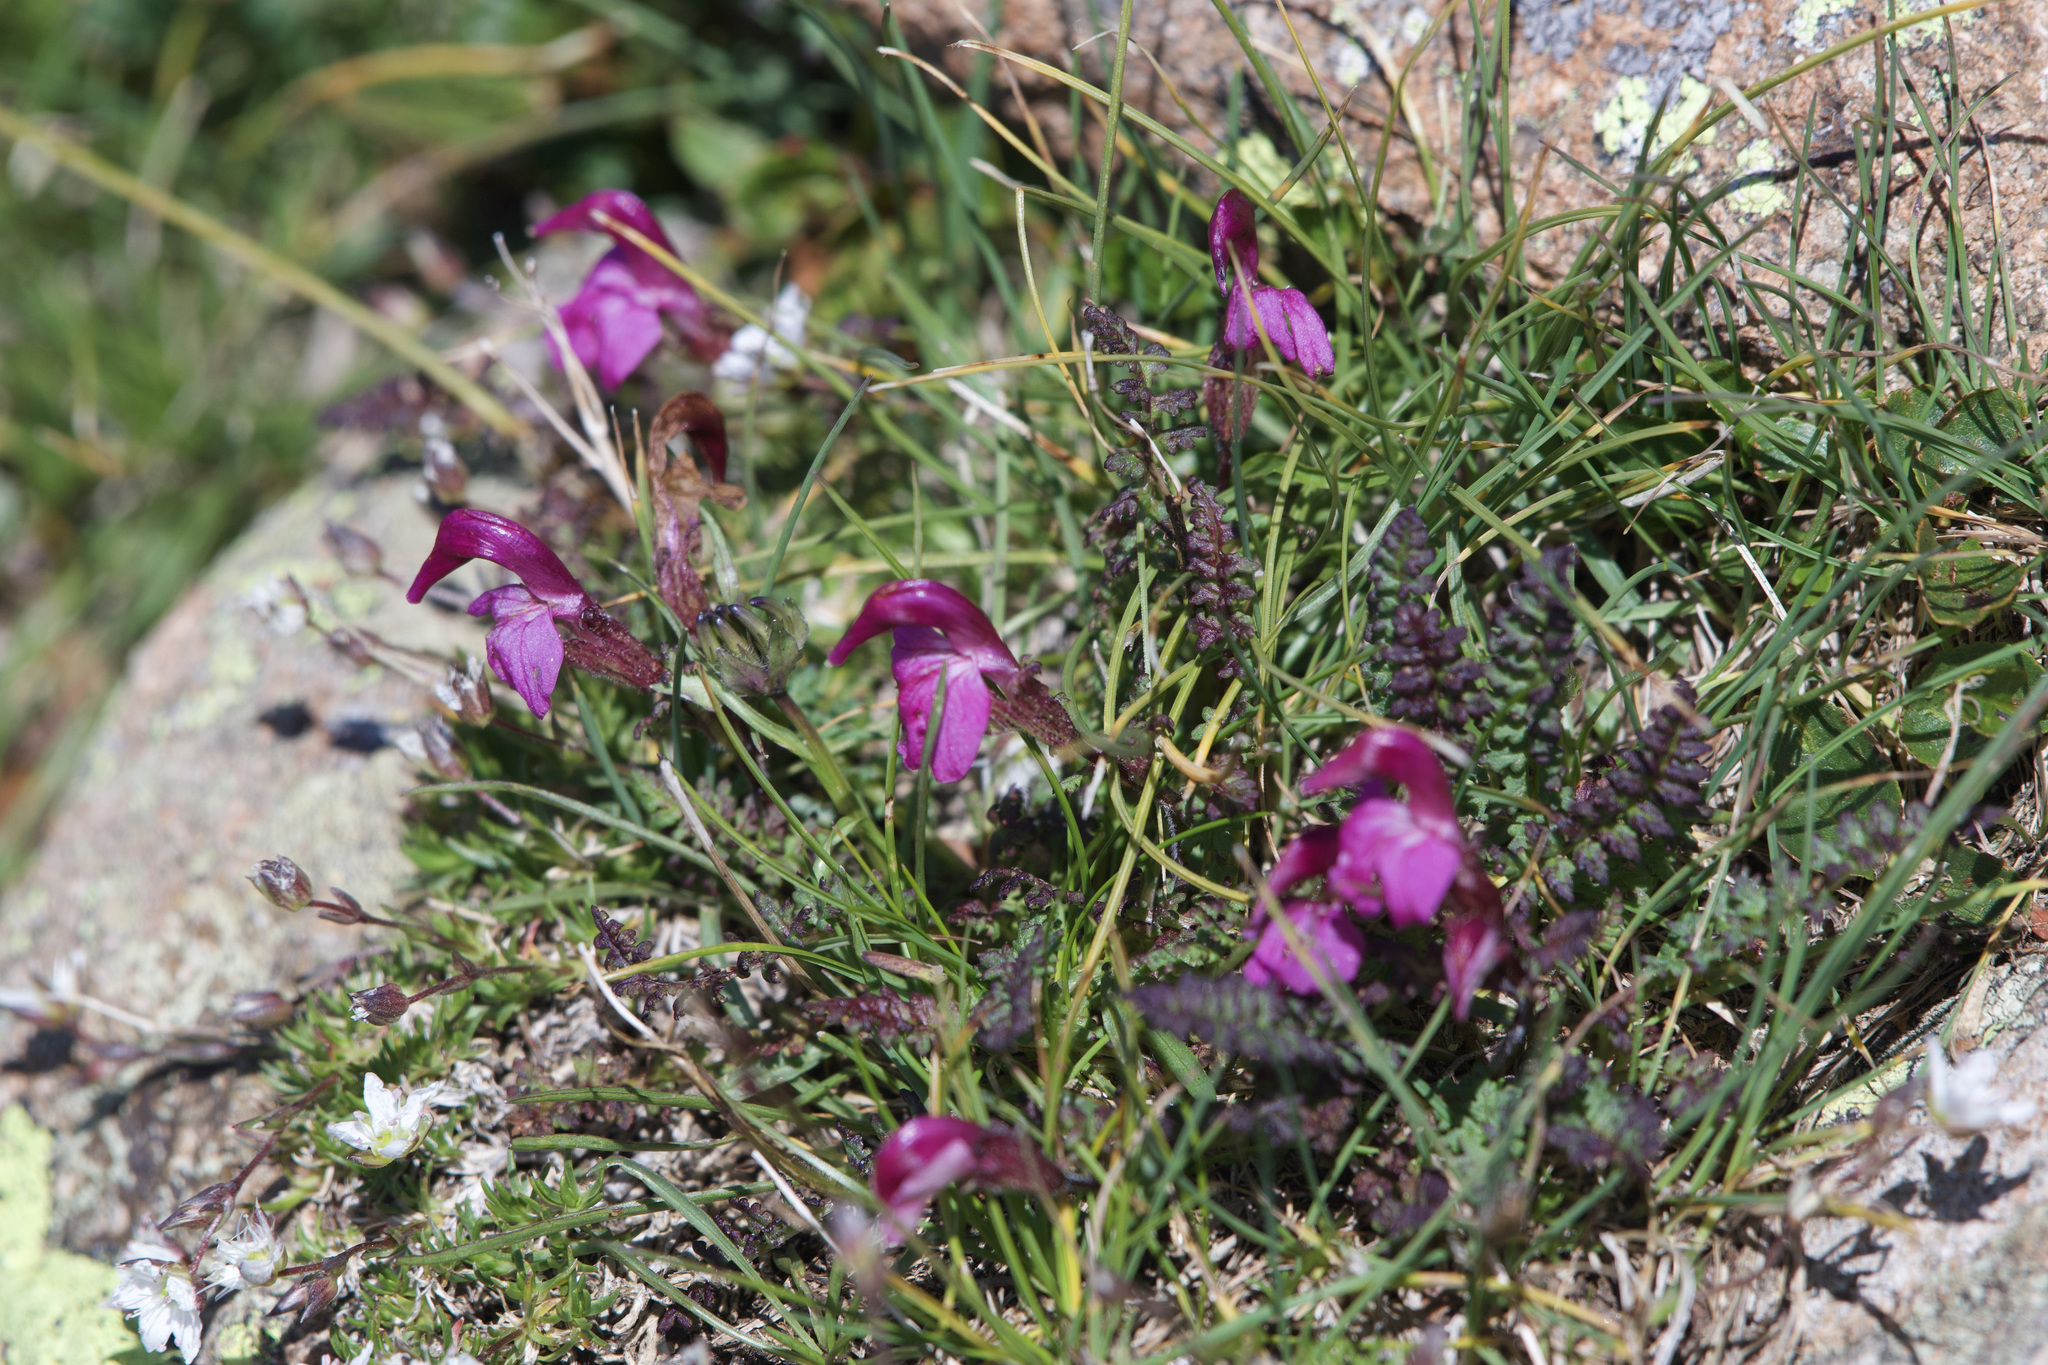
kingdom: Plantae
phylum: Tracheophyta
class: Magnoliopsida
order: Lamiales
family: Orobanchaceae
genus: Pedicularis
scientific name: Pedicularis kerneri
